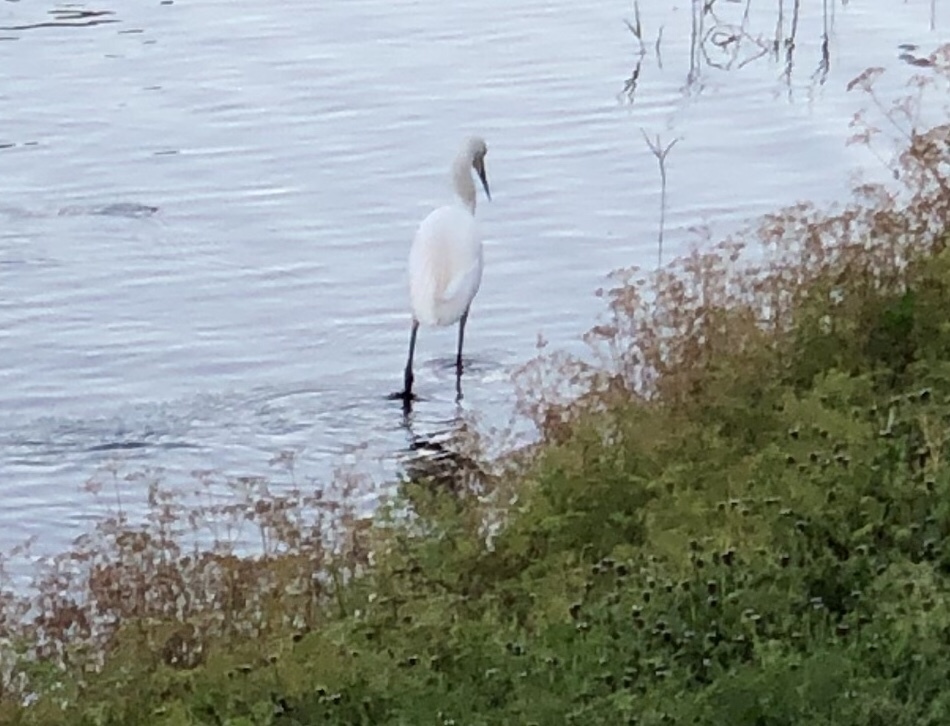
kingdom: Animalia
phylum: Chordata
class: Aves
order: Pelecaniformes
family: Ardeidae
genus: Egretta
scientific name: Egretta thula
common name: Snowy egret
